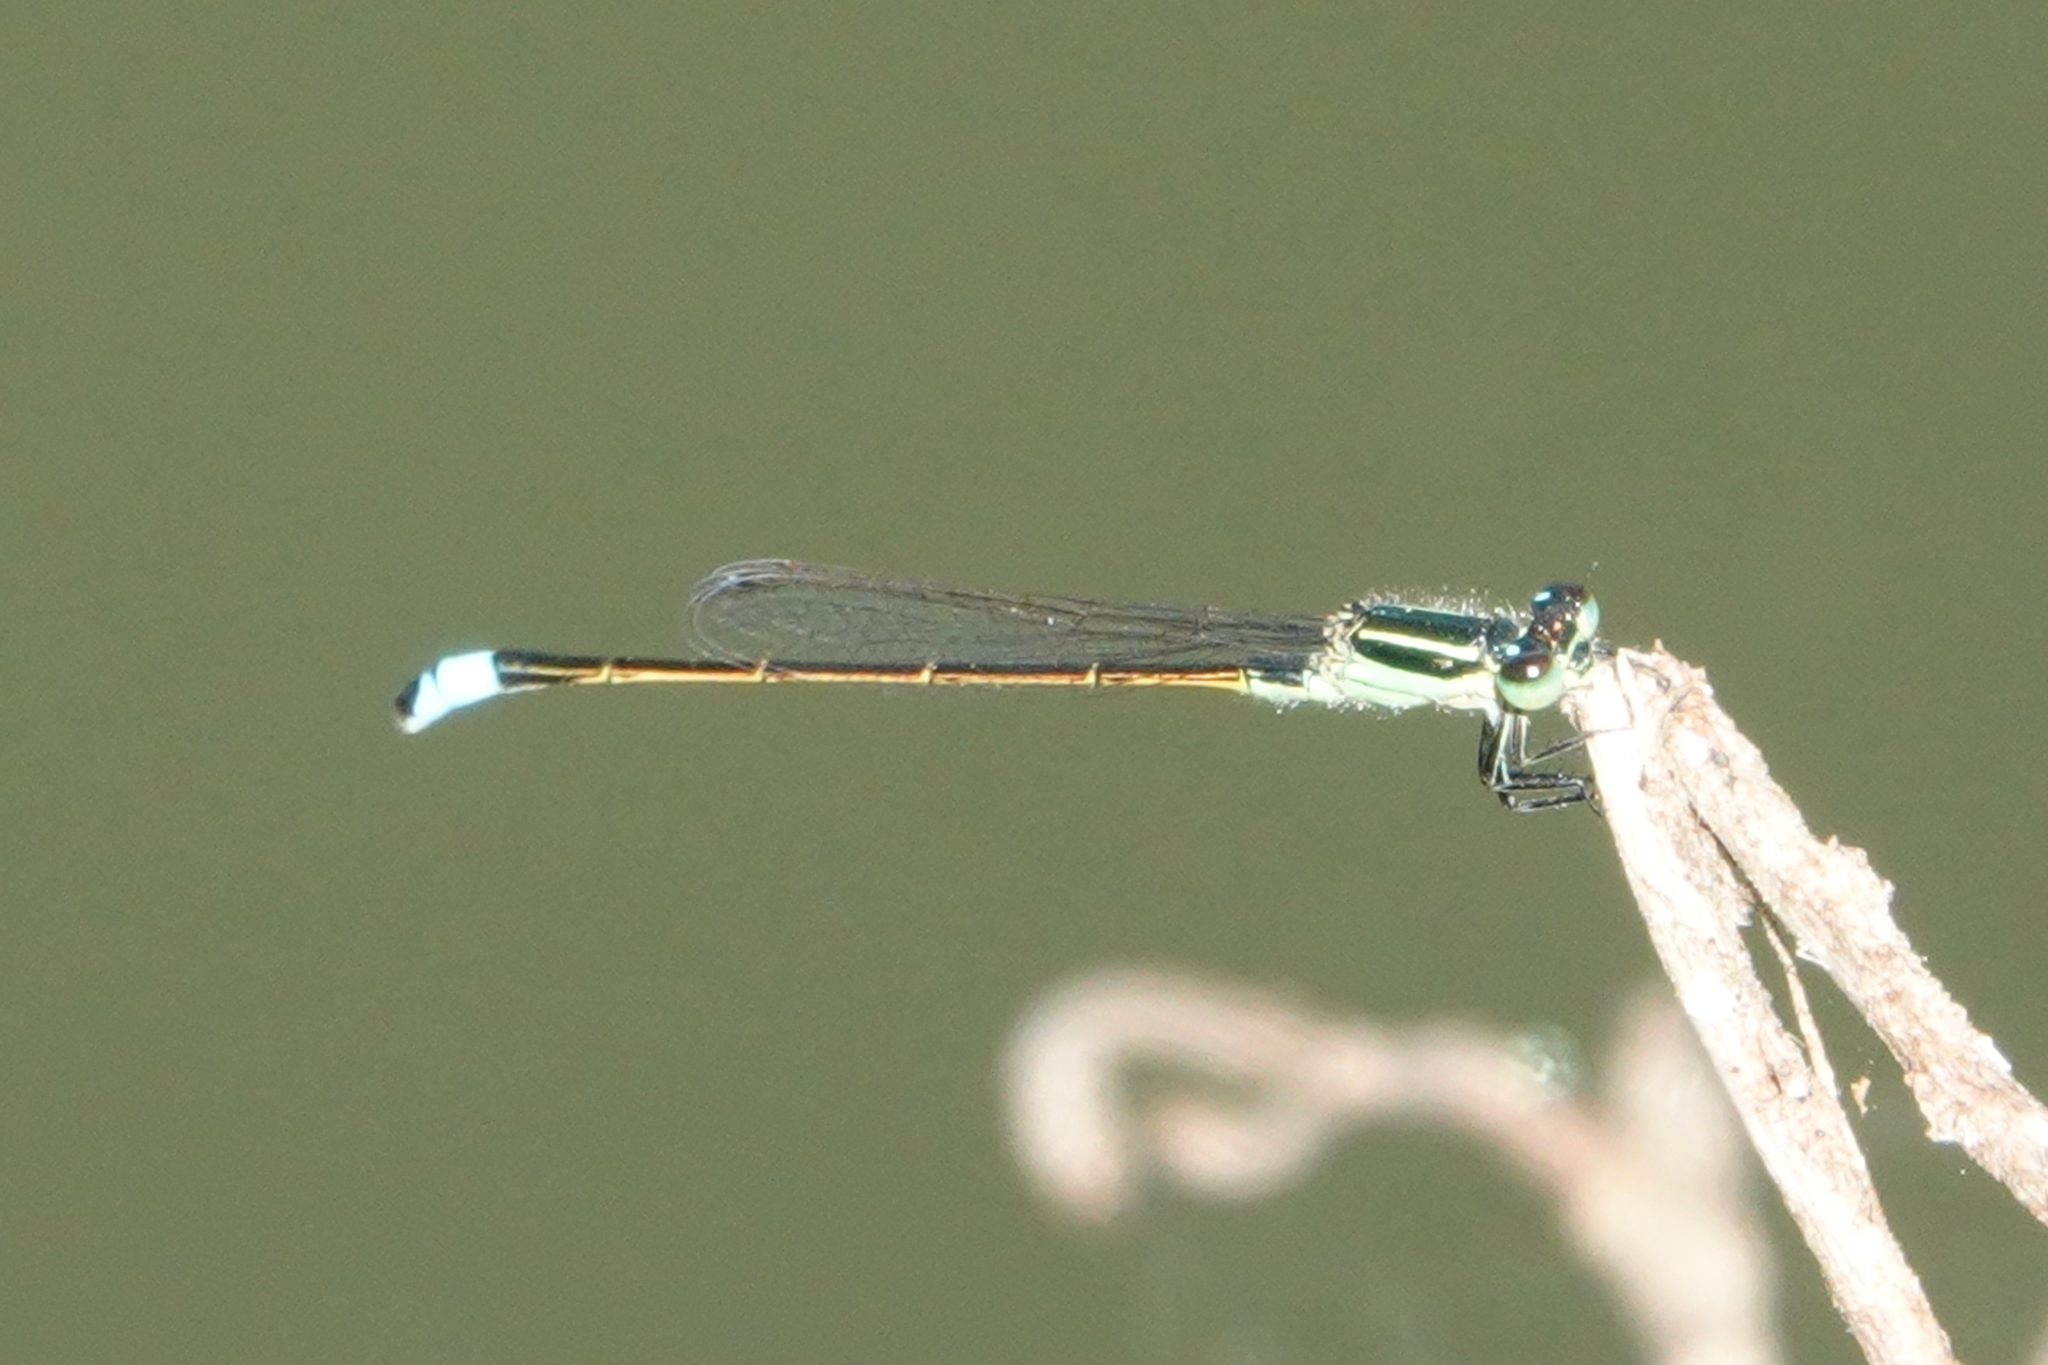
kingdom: Animalia
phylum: Arthropoda
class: Insecta
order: Odonata
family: Coenagrionidae
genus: Ischnura
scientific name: Ischnura ramburii
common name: Rambur's forktail
